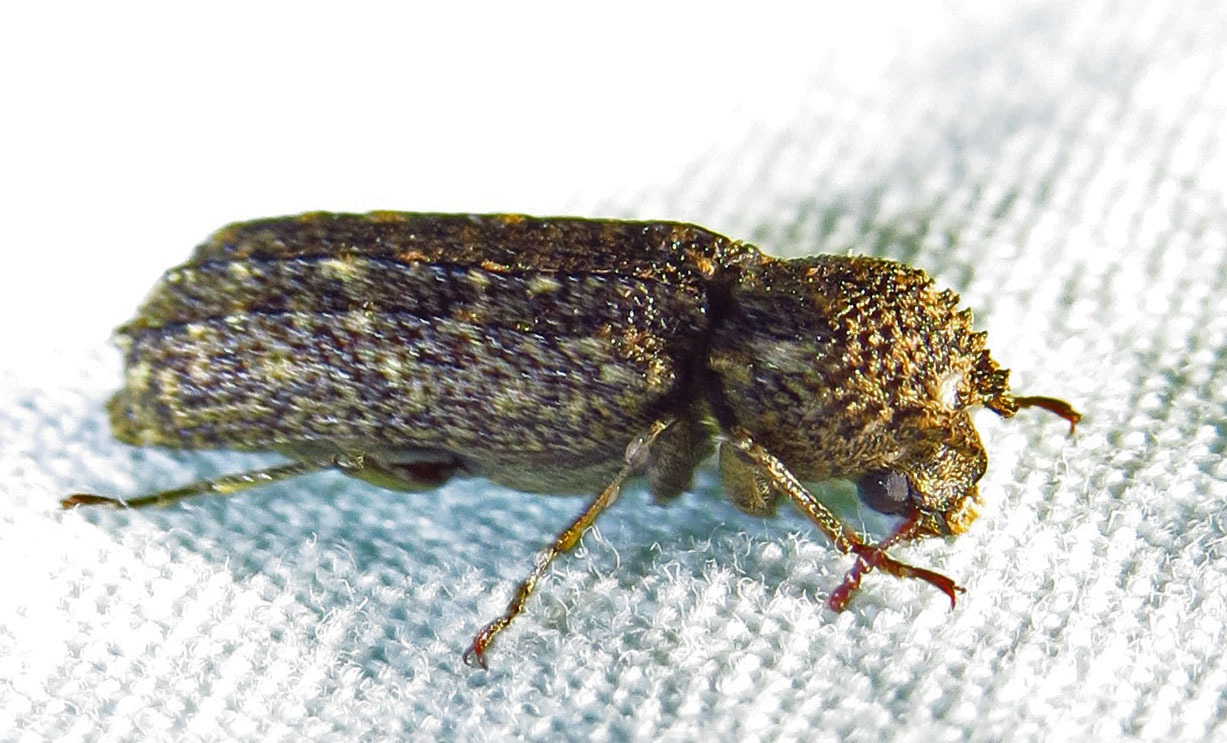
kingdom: Animalia
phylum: Arthropoda
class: Insecta
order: Coleoptera
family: Bostrichidae
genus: Lichenophanes
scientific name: Lichenophanes bicornis
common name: Two-horned powder-post beetle
